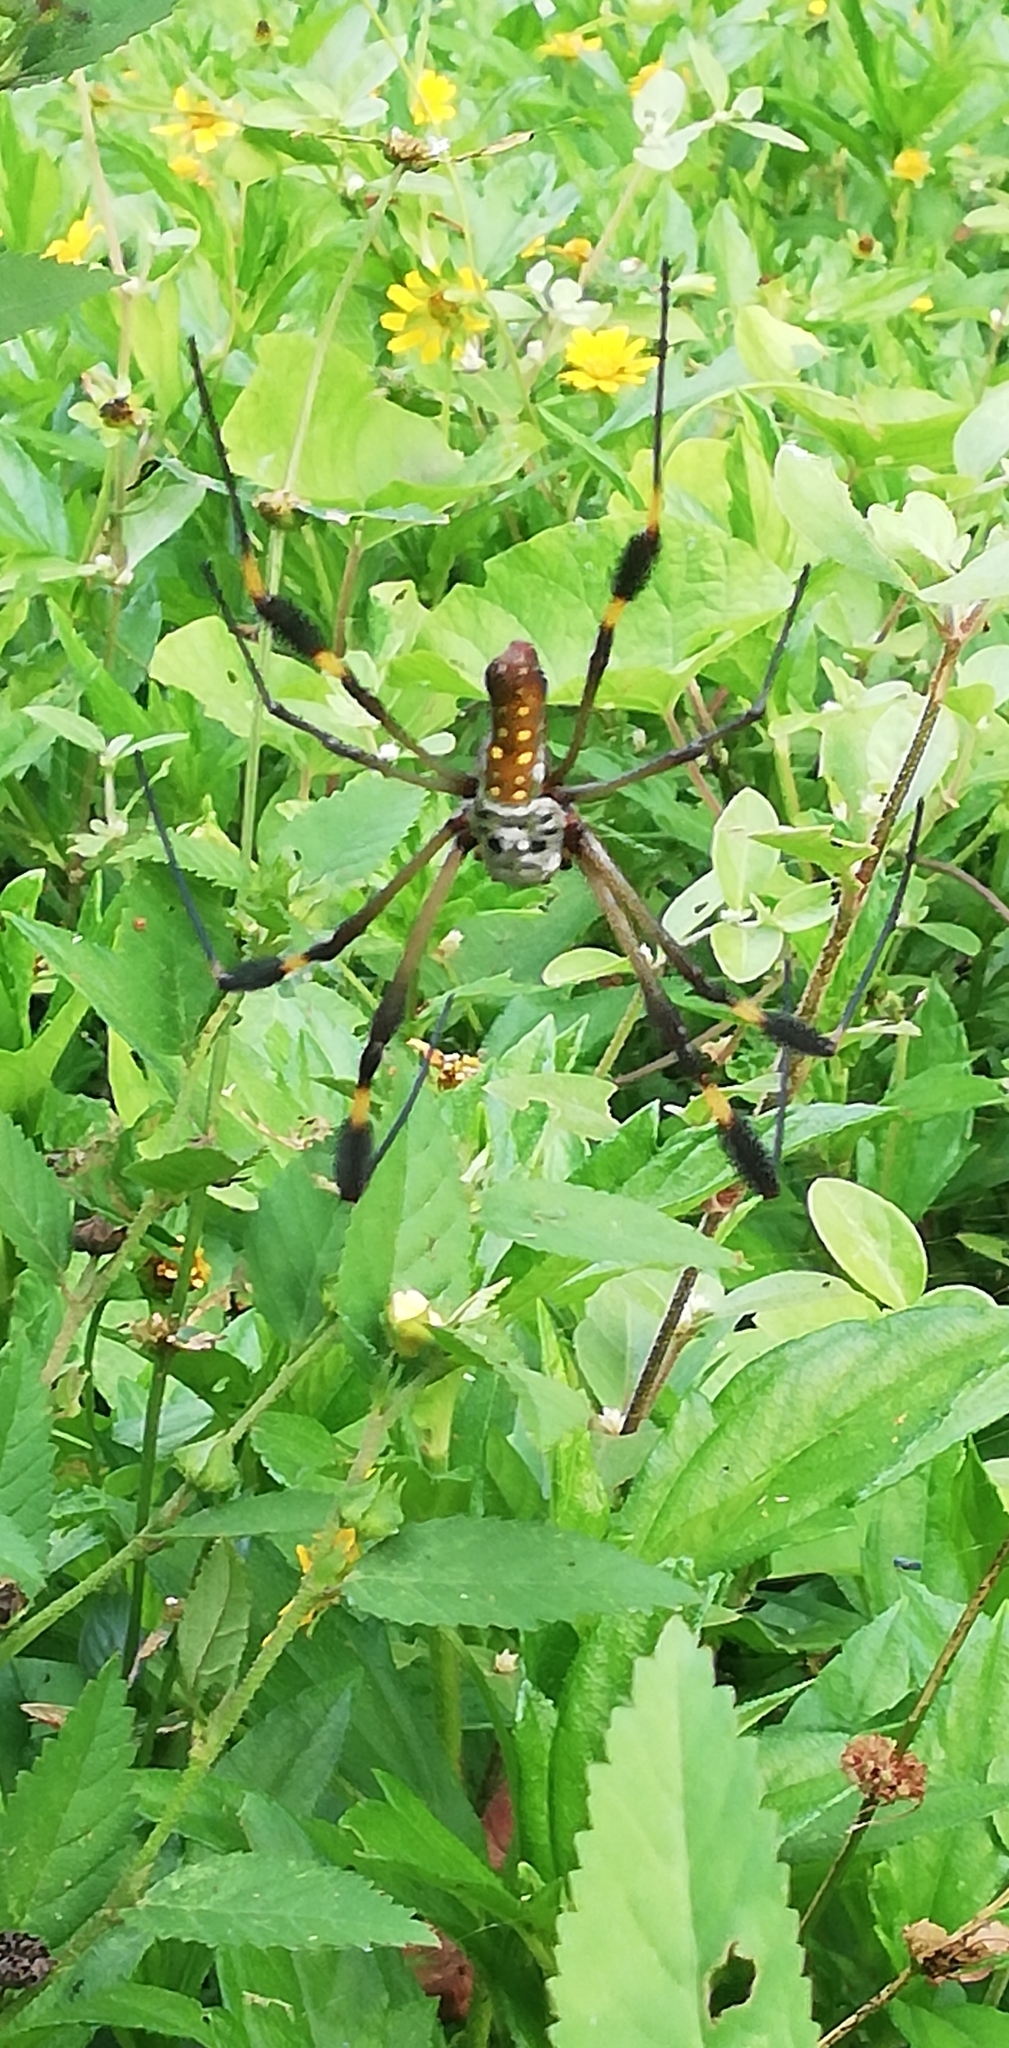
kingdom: Animalia
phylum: Arthropoda
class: Arachnida
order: Araneae
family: Araneidae
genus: Trichonephila
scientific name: Trichonephila clavipes
